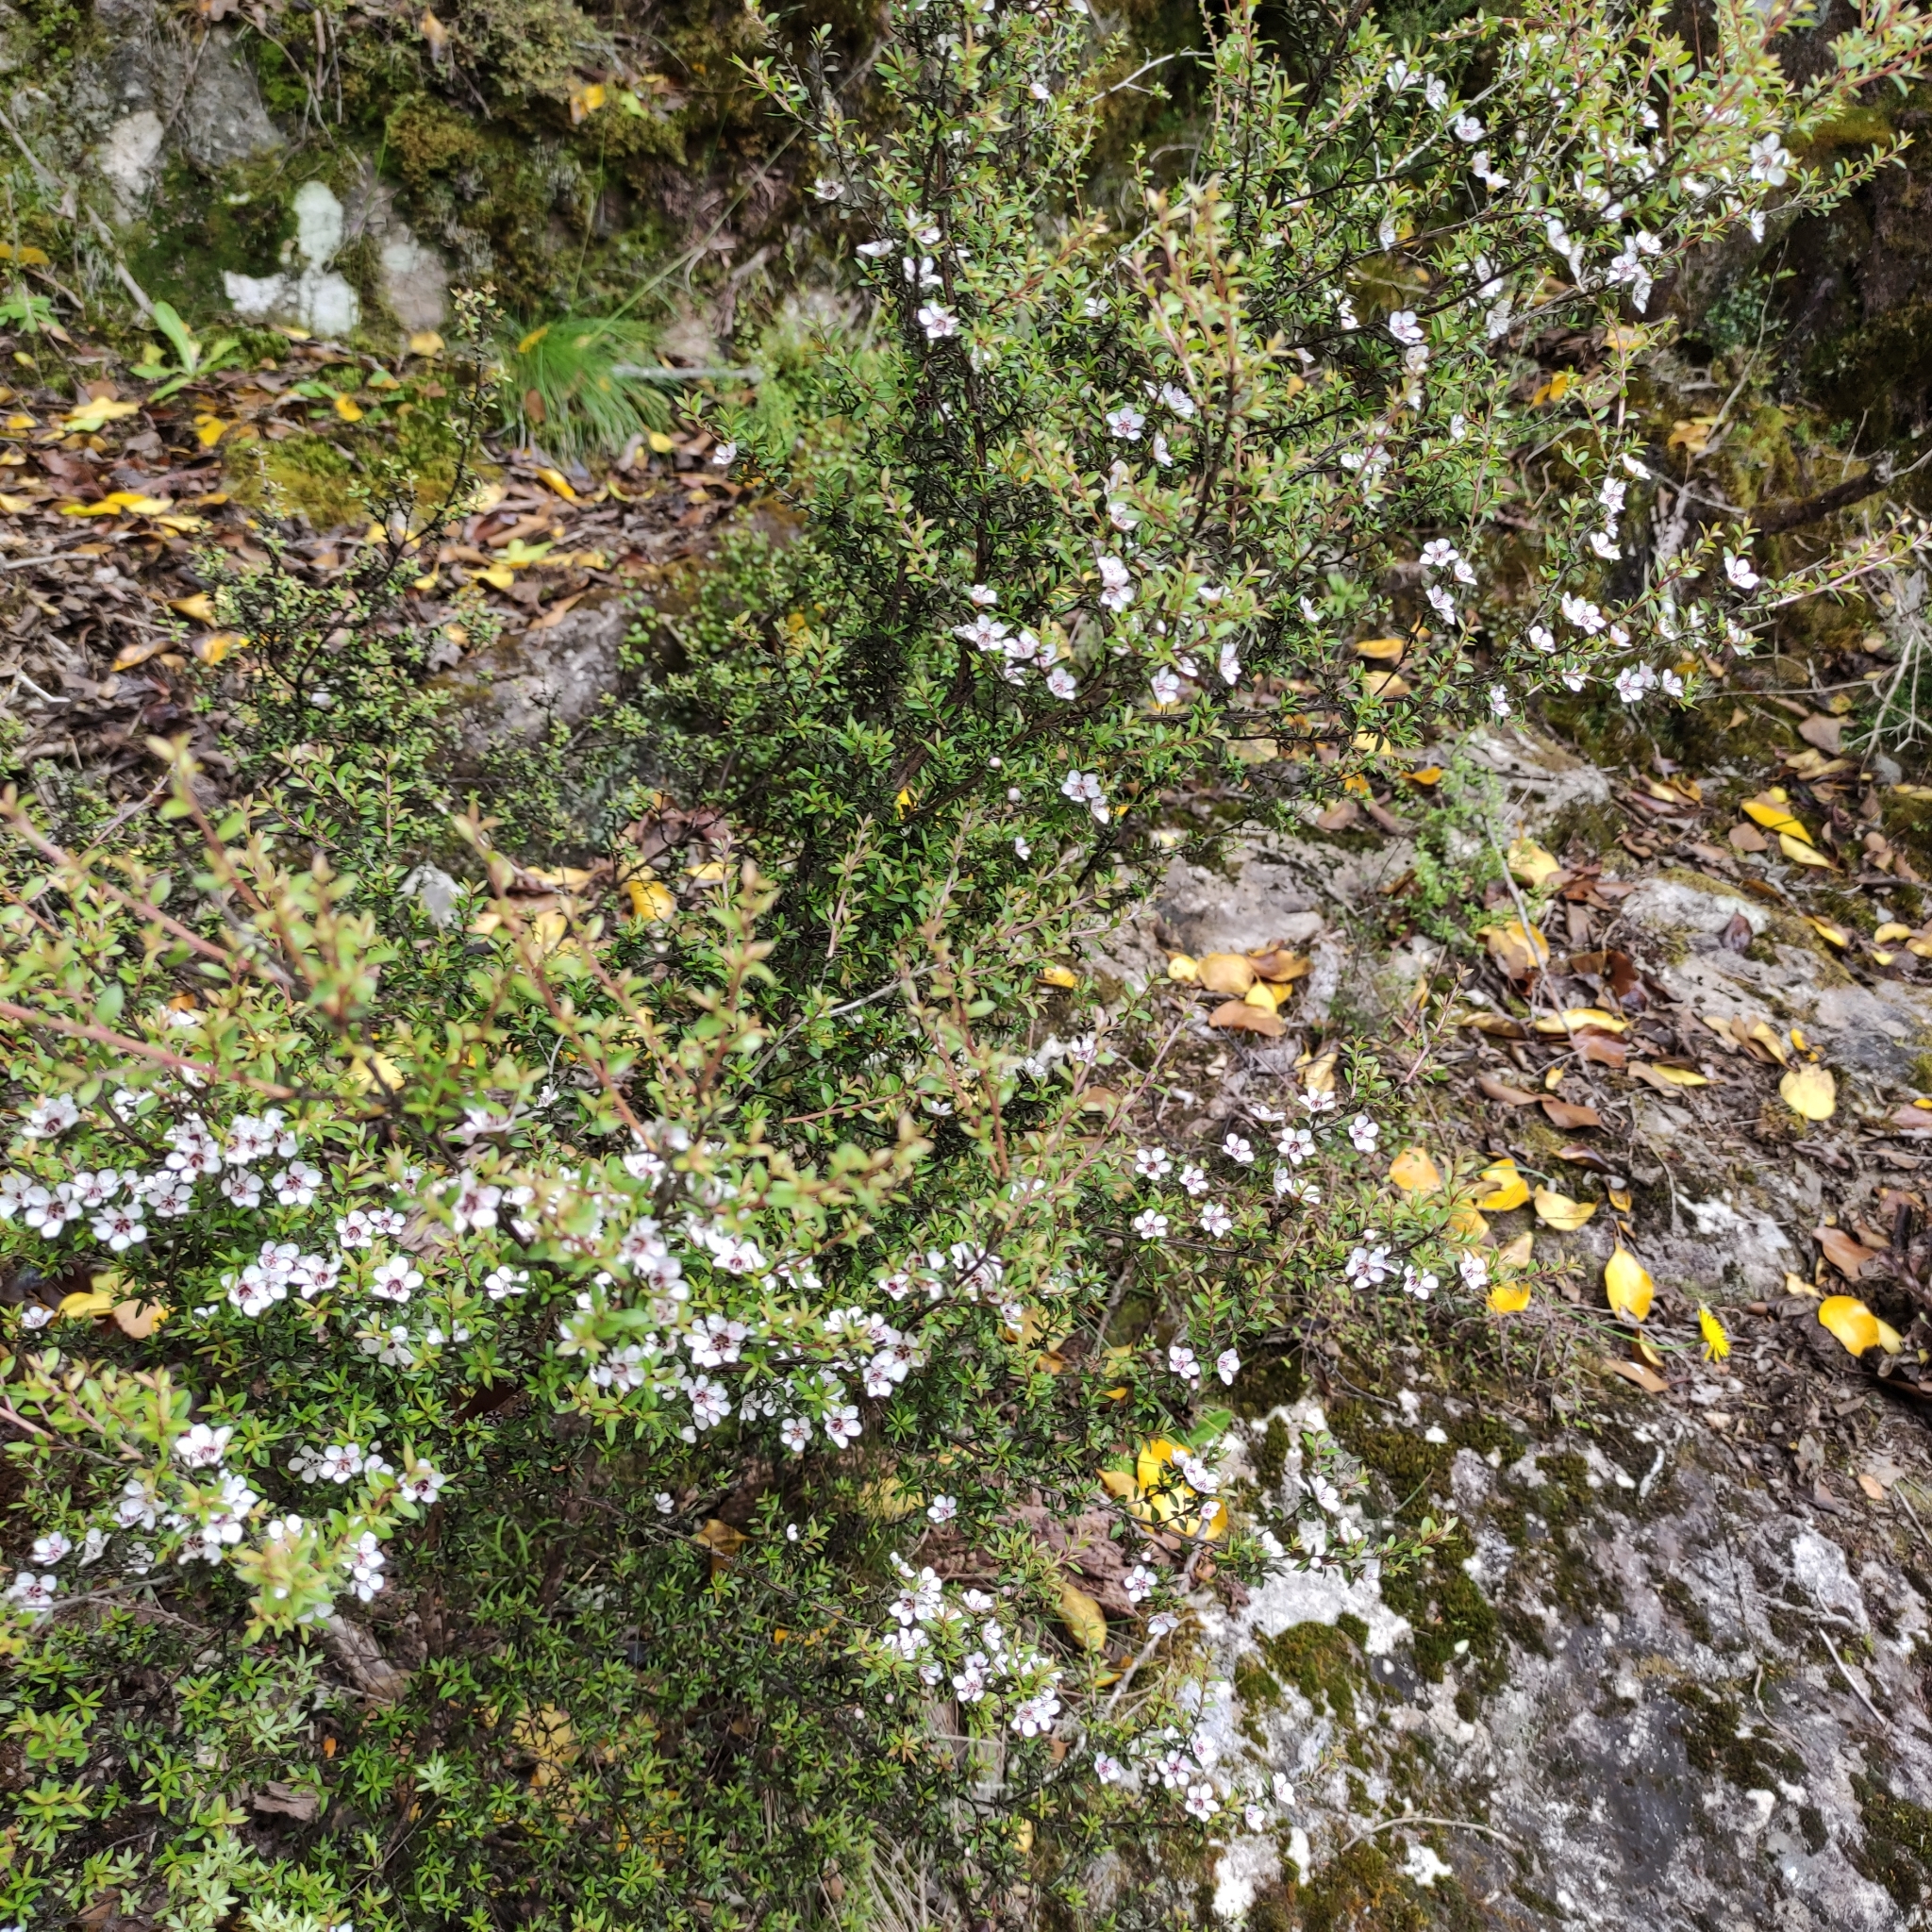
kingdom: Plantae
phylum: Tracheophyta
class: Magnoliopsida
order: Myrtales
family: Myrtaceae
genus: Leptospermum
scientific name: Leptospermum scoparium
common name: Broom tea-tree
